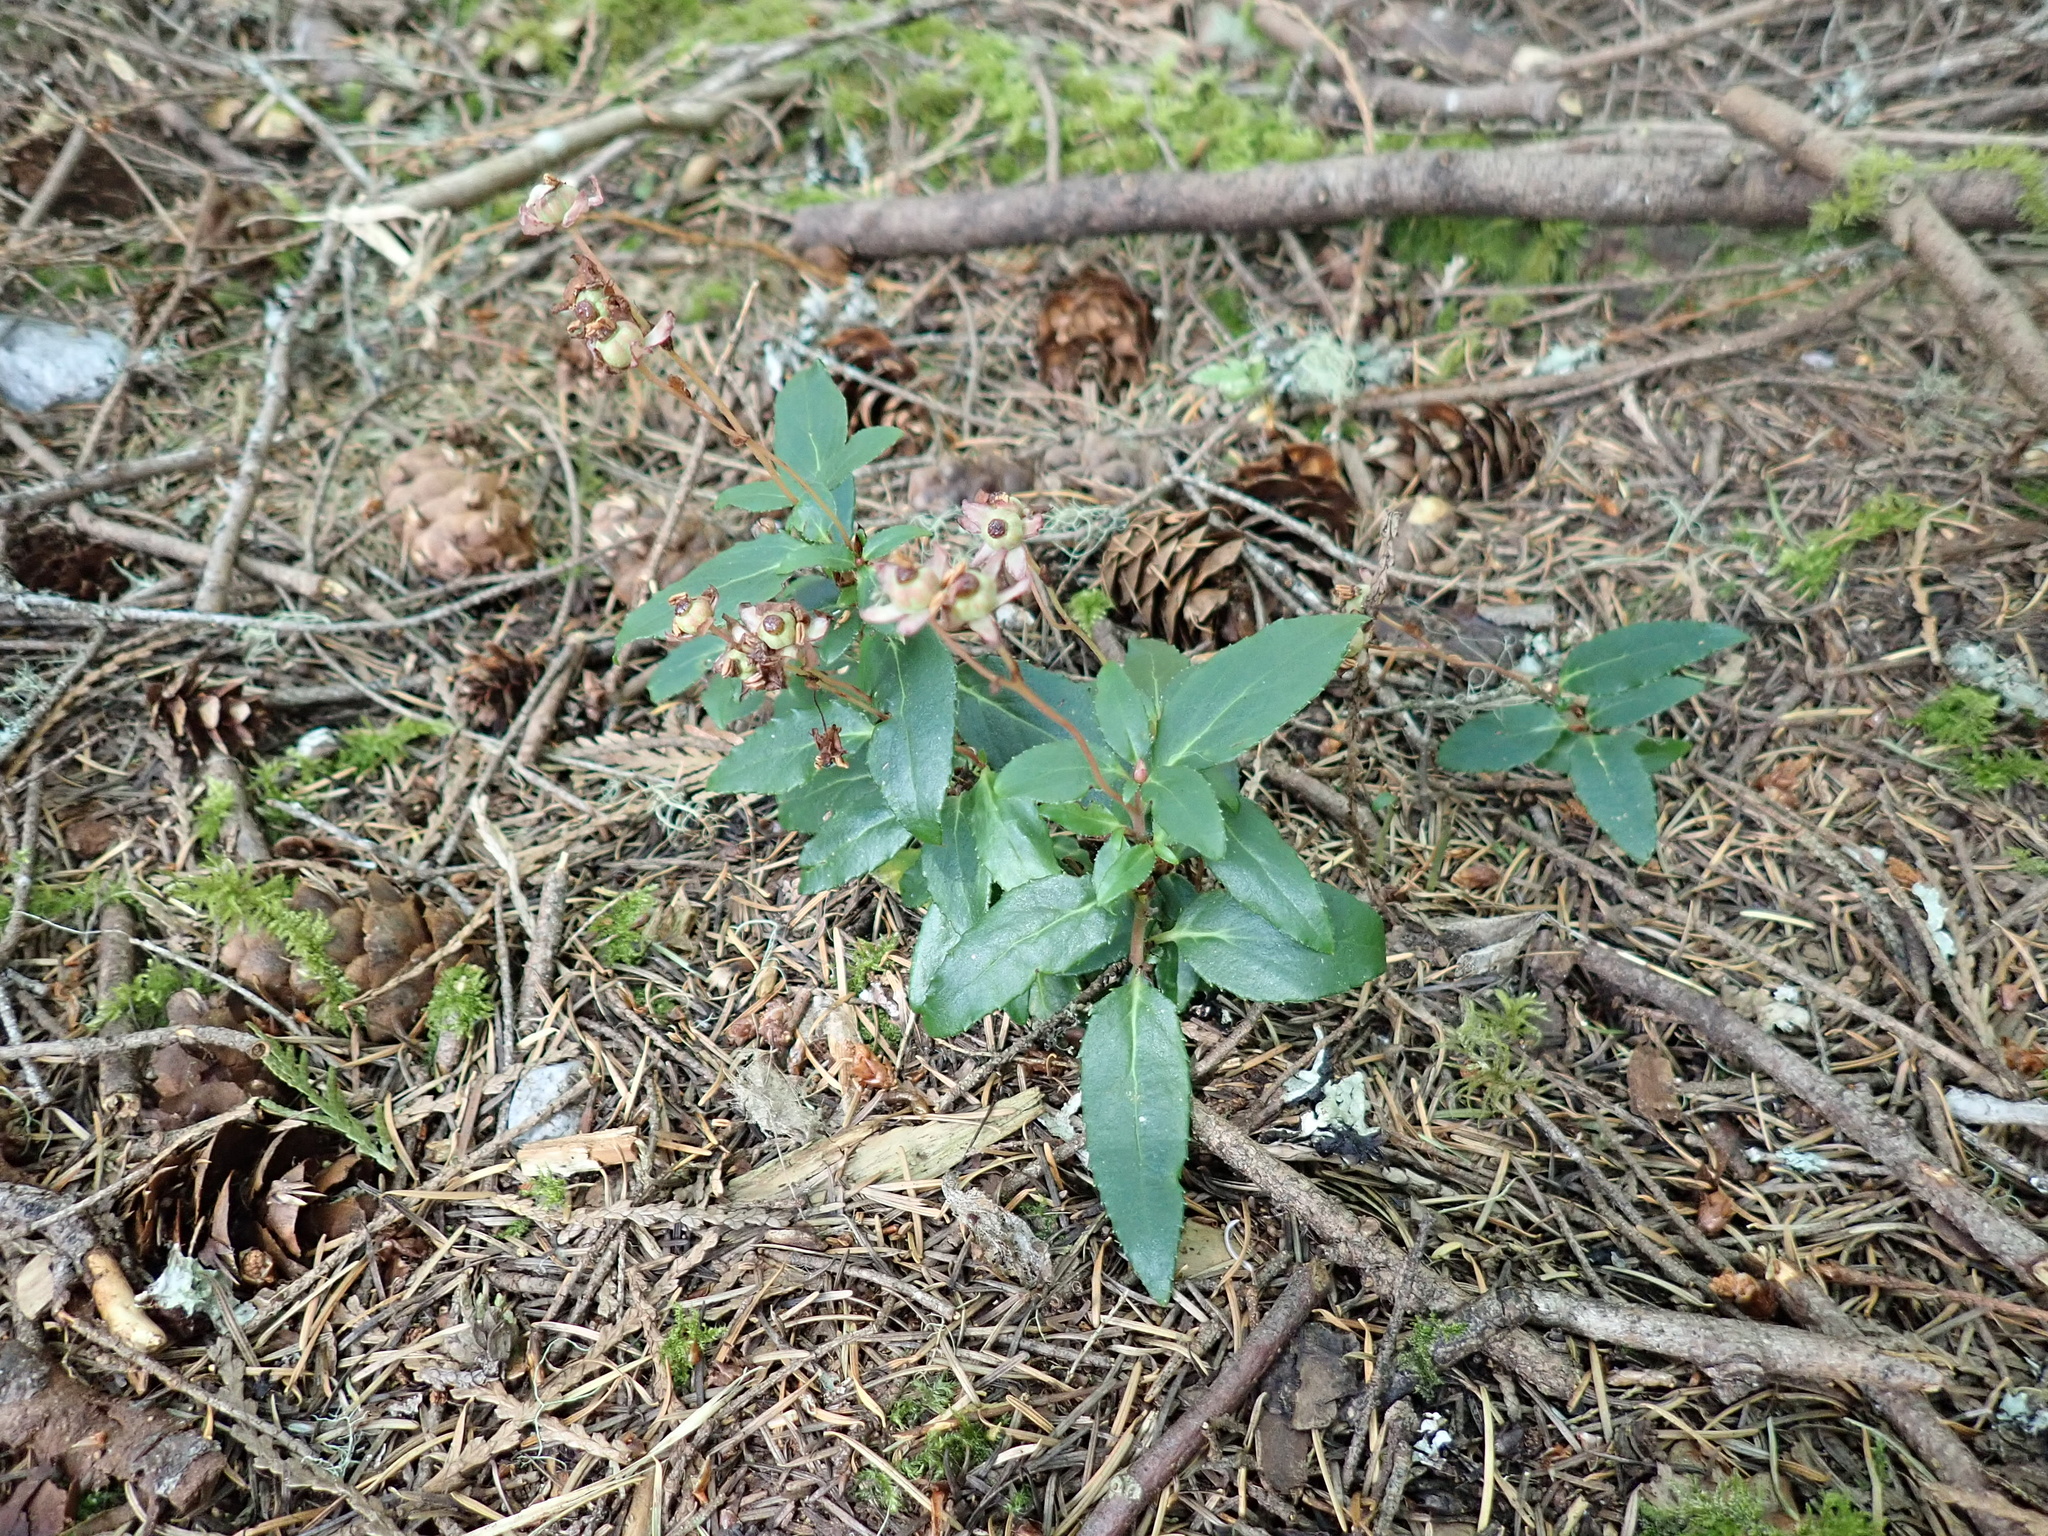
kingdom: Plantae
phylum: Tracheophyta
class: Magnoliopsida
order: Ericales
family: Ericaceae
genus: Chimaphila
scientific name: Chimaphila menziesii
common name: Menzies' pipsissewa
